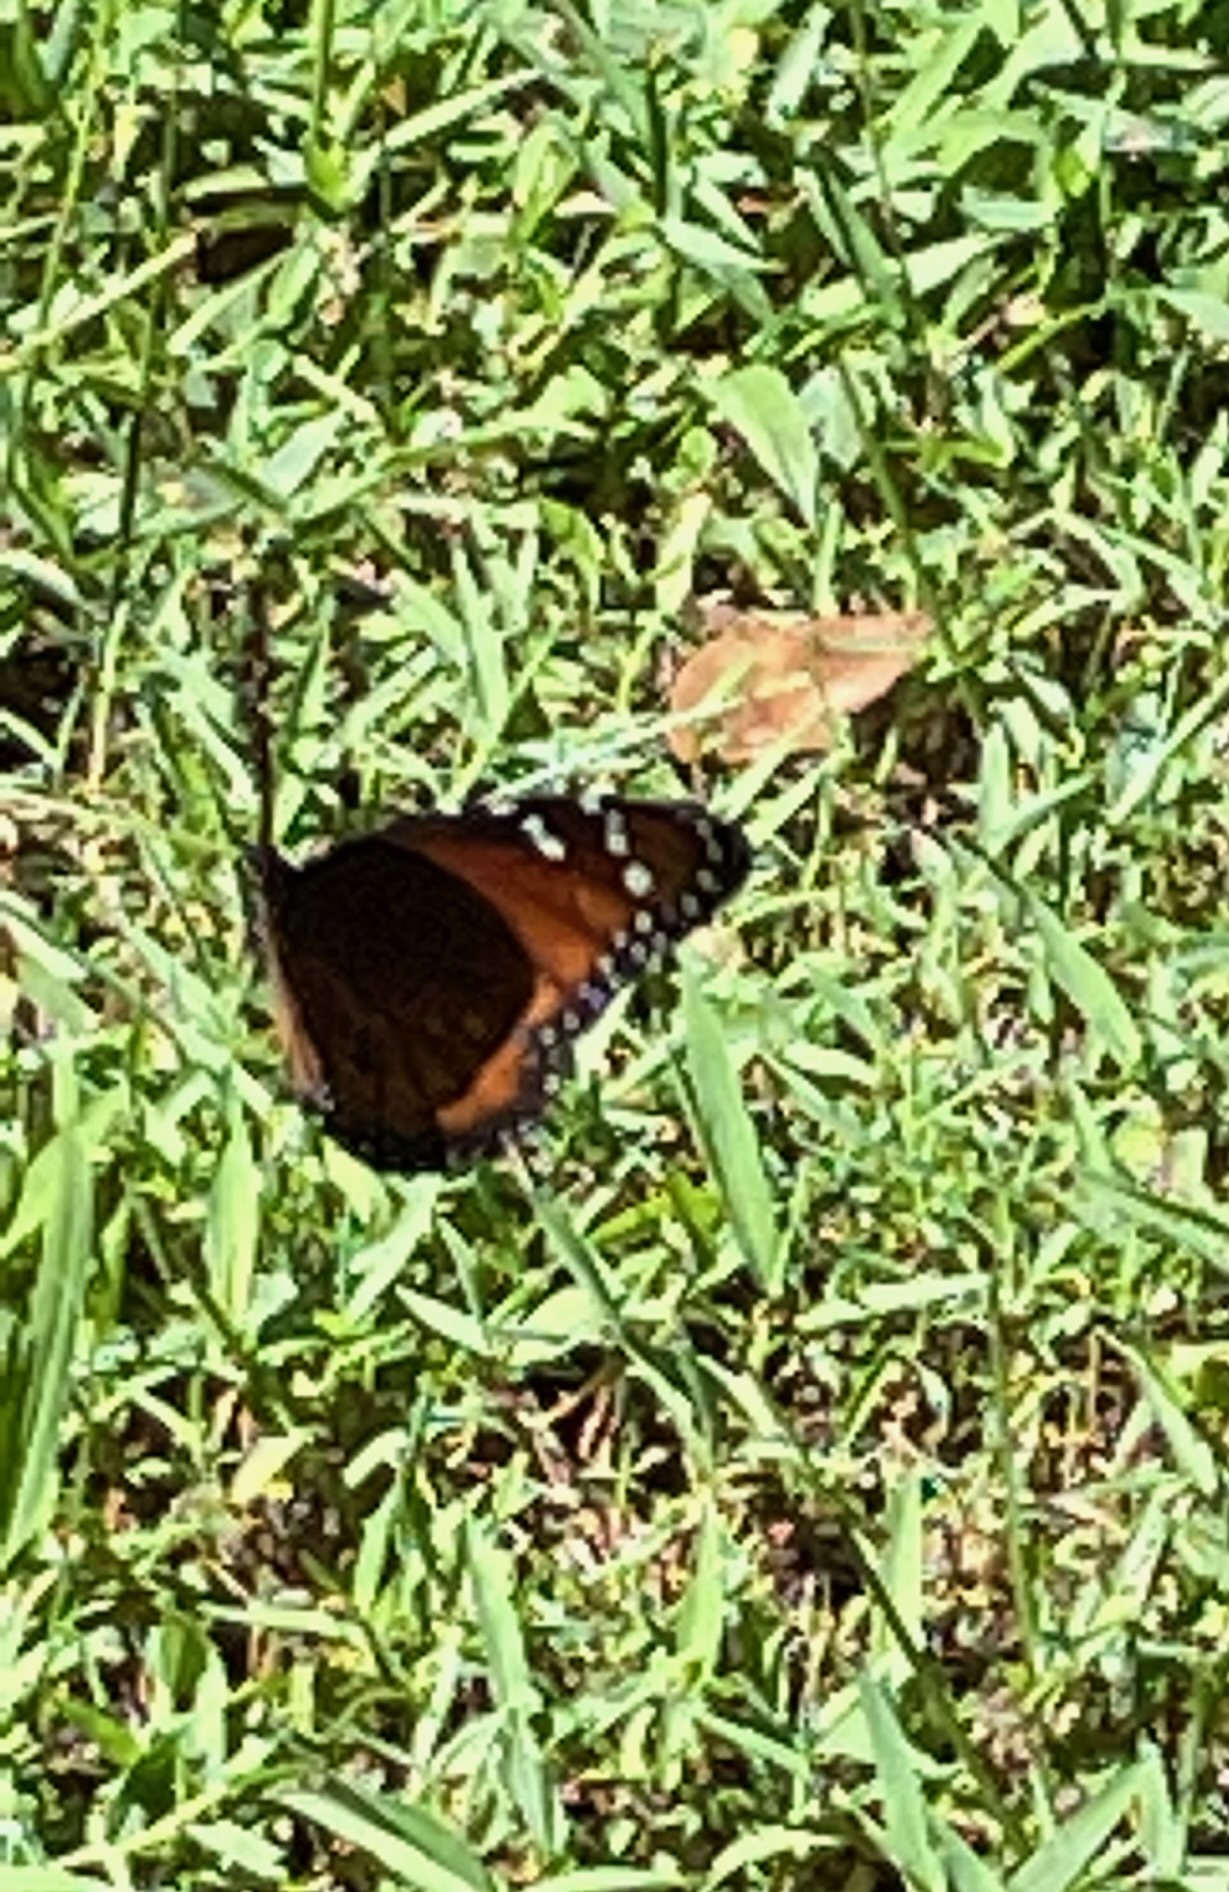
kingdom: Animalia
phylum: Arthropoda
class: Insecta
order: Lepidoptera
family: Nymphalidae
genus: Danaus
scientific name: Danaus gilippus
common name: Queen
